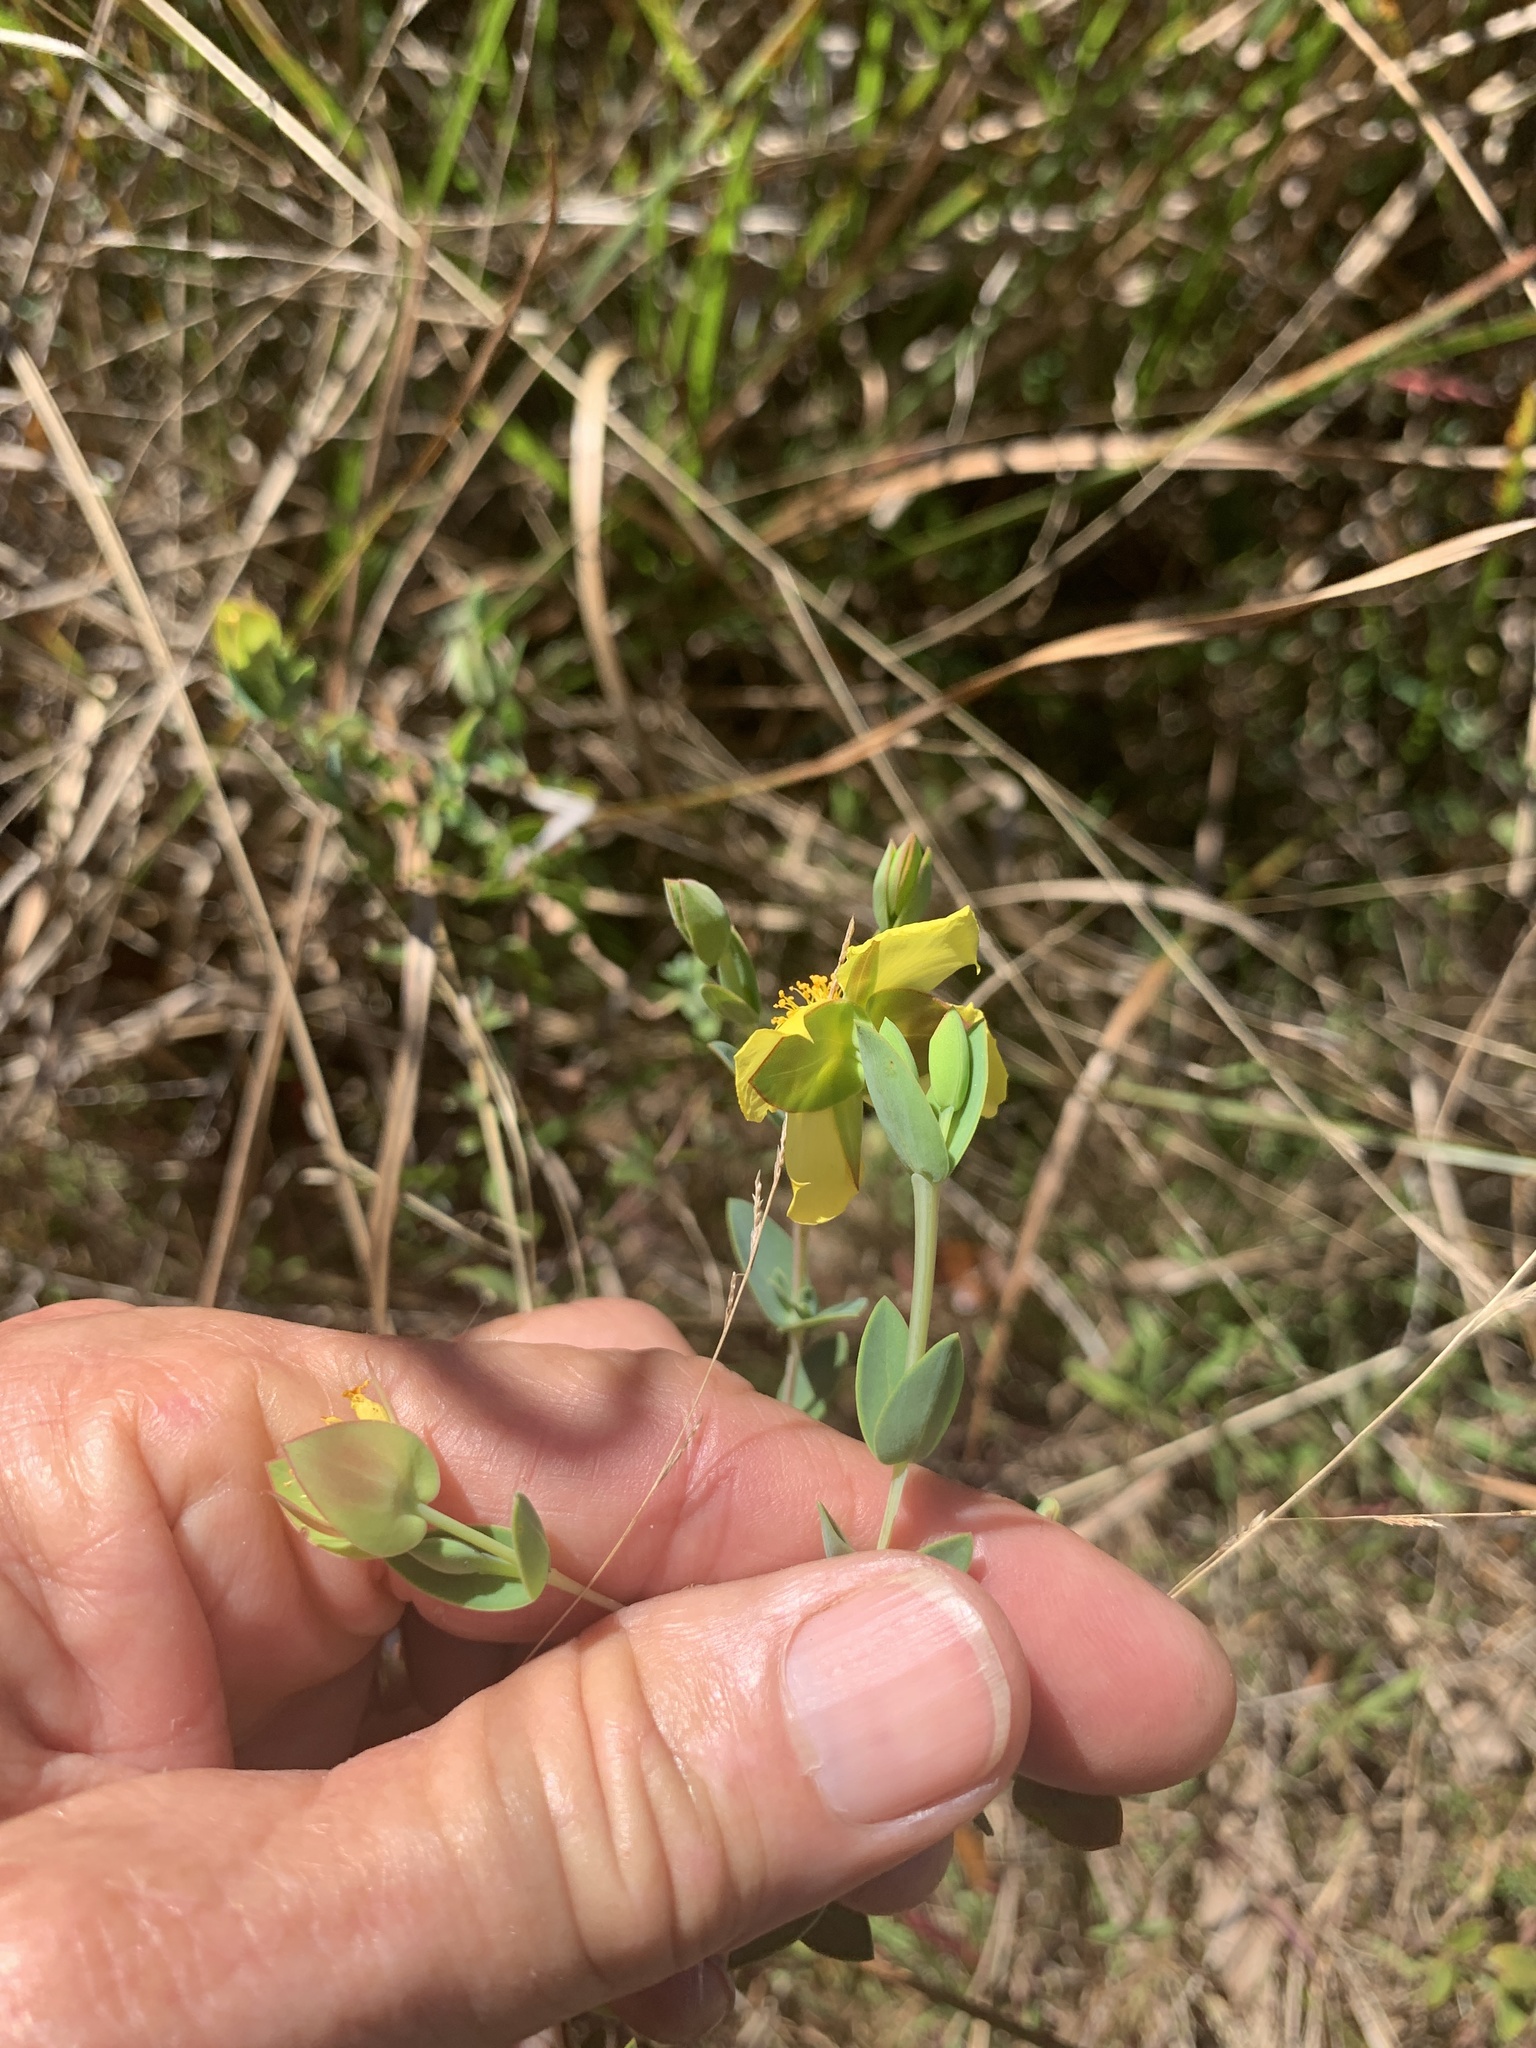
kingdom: Plantae
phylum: Tracheophyta
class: Magnoliopsida
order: Malpighiales
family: Hypericaceae
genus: Hypericum
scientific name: Hypericum tetrapetalum
